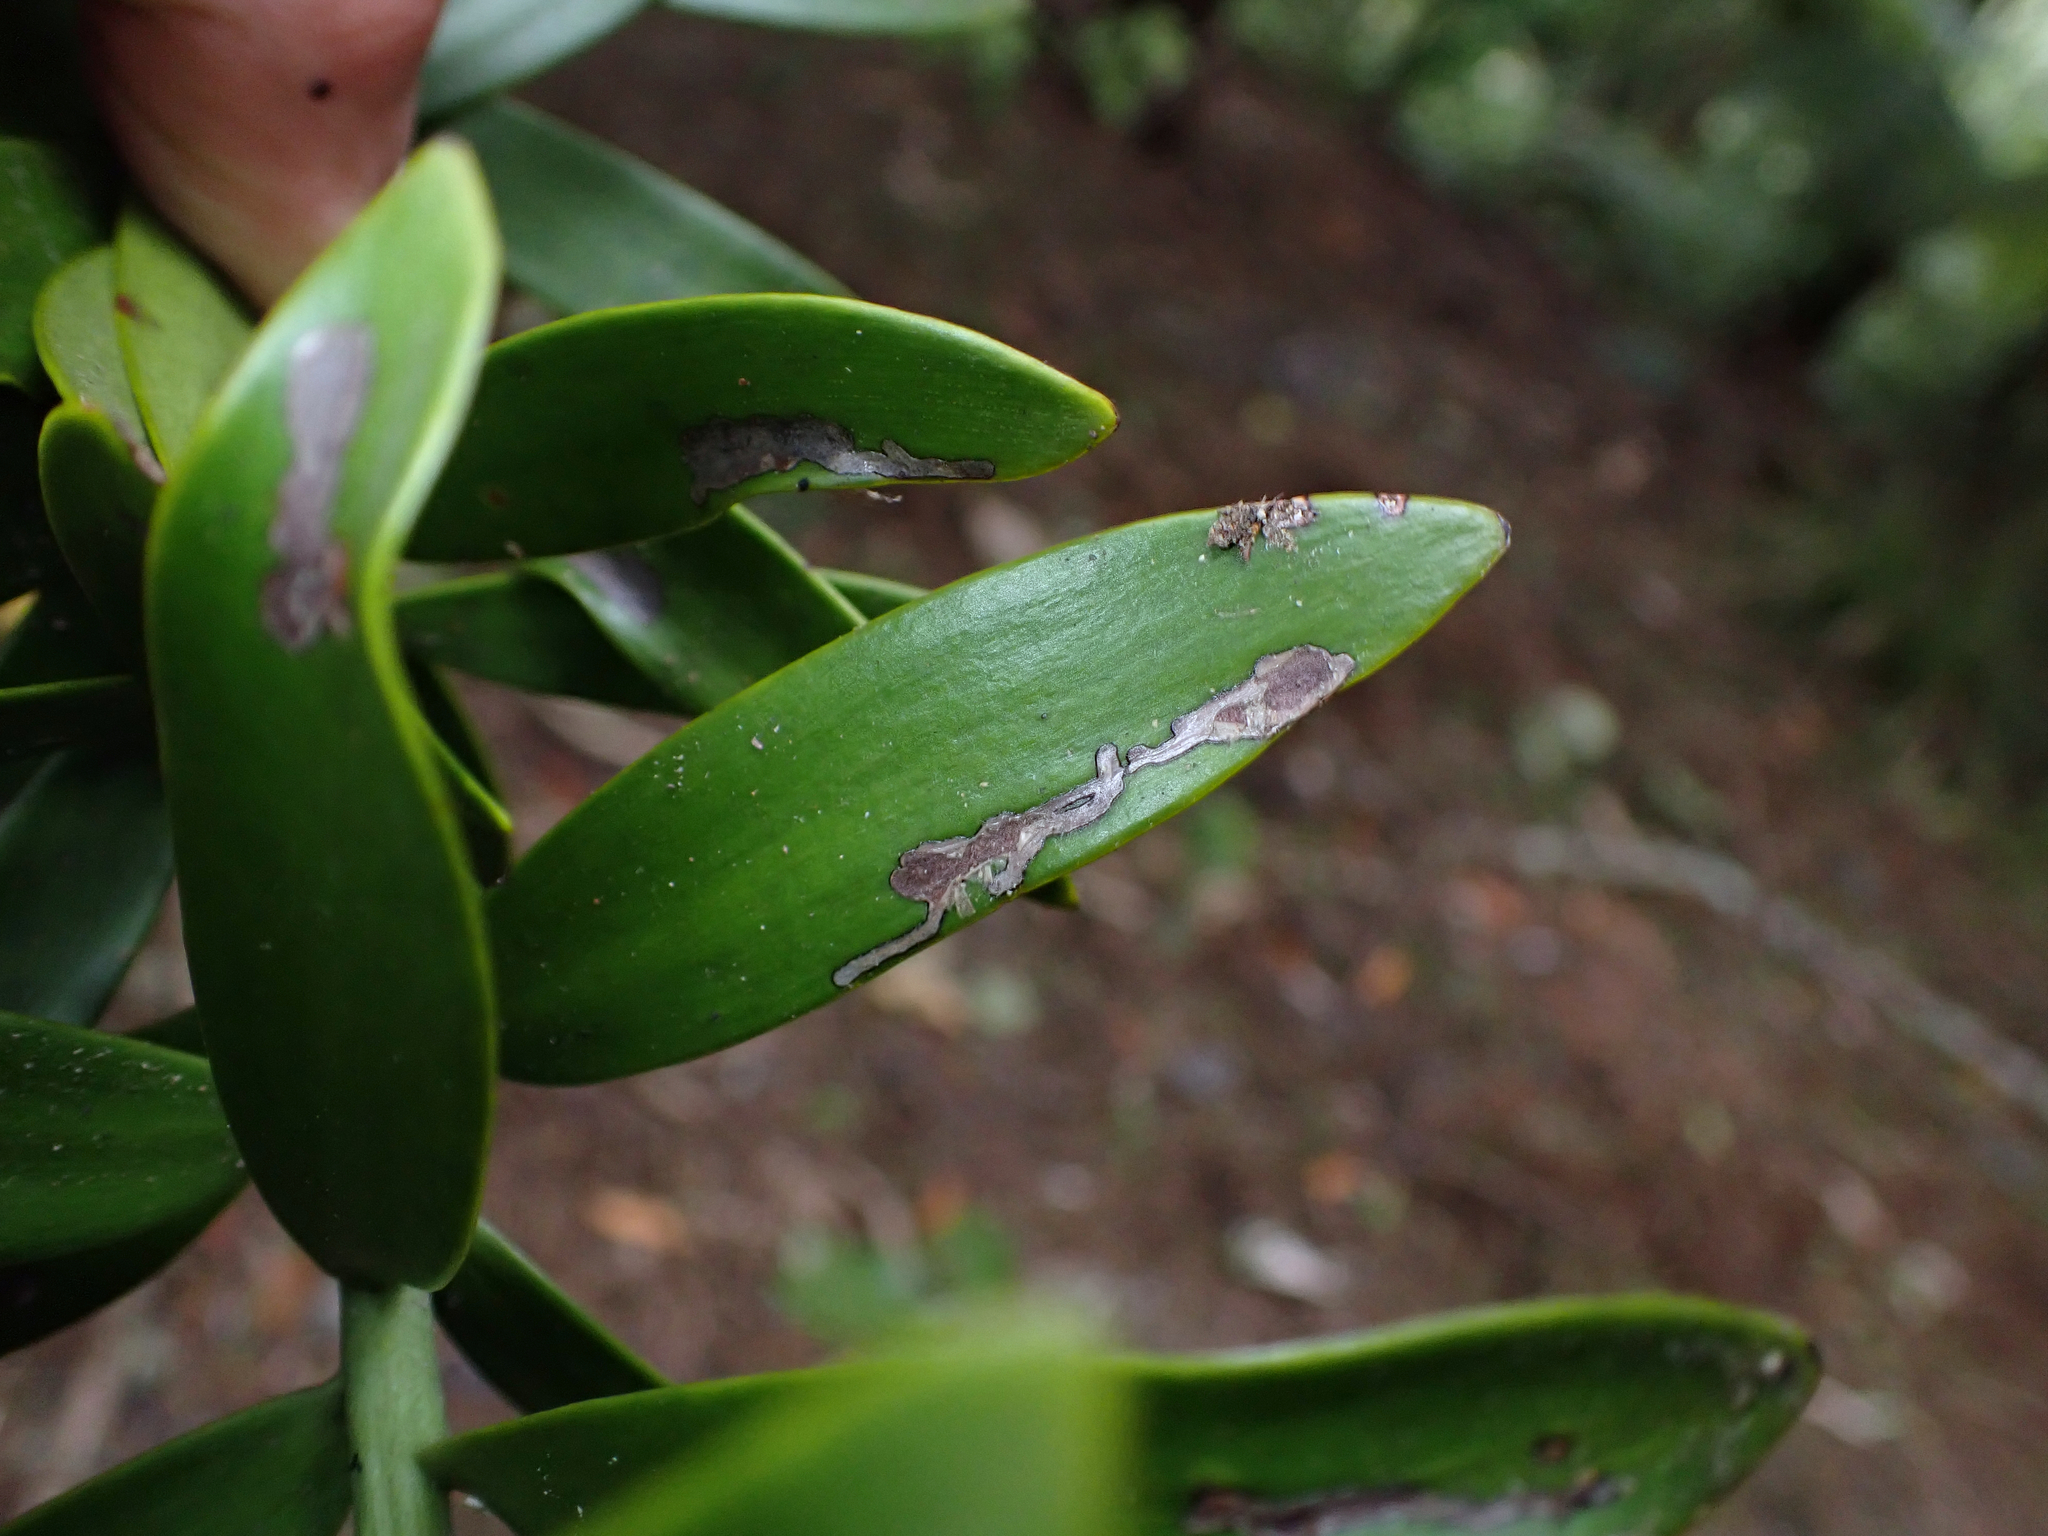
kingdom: Animalia
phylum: Arthropoda
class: Insecta
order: Lepidoptera
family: Gracillariidae
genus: Acrocercops
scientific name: Acrocercops leucotoma
